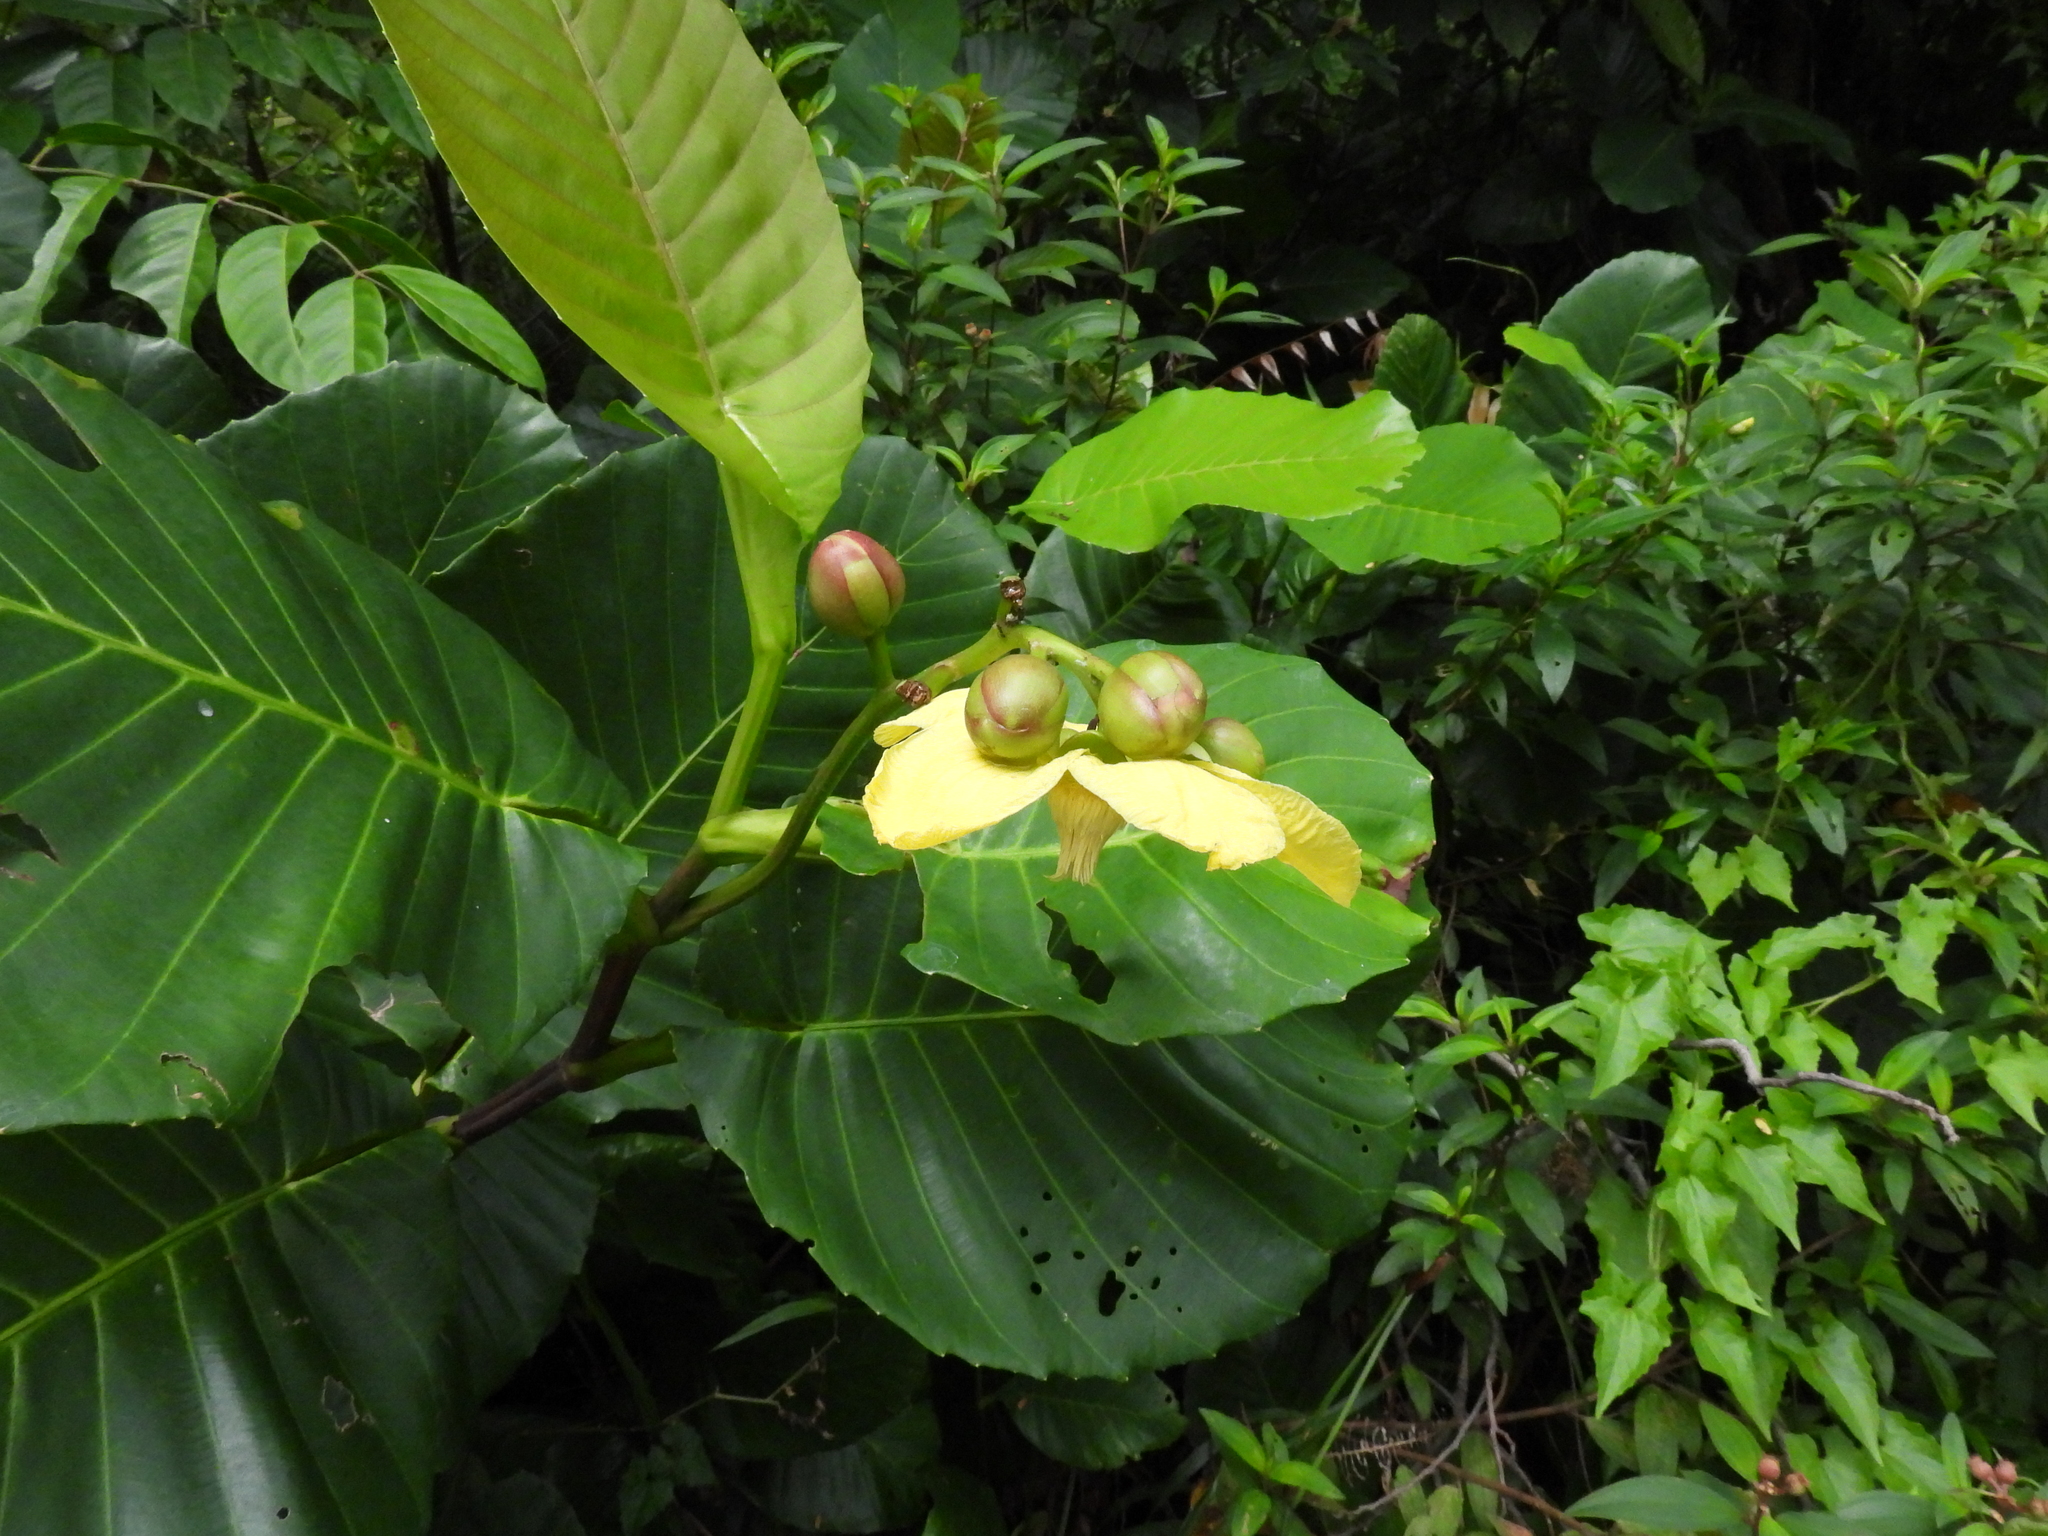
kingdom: Plantae
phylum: Tracheophyta
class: Magnoliopsida
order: Dilleniales
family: Dilleniaceae
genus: Dillenia
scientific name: Dillenia suffruticosa
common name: Shrubby dillenia
